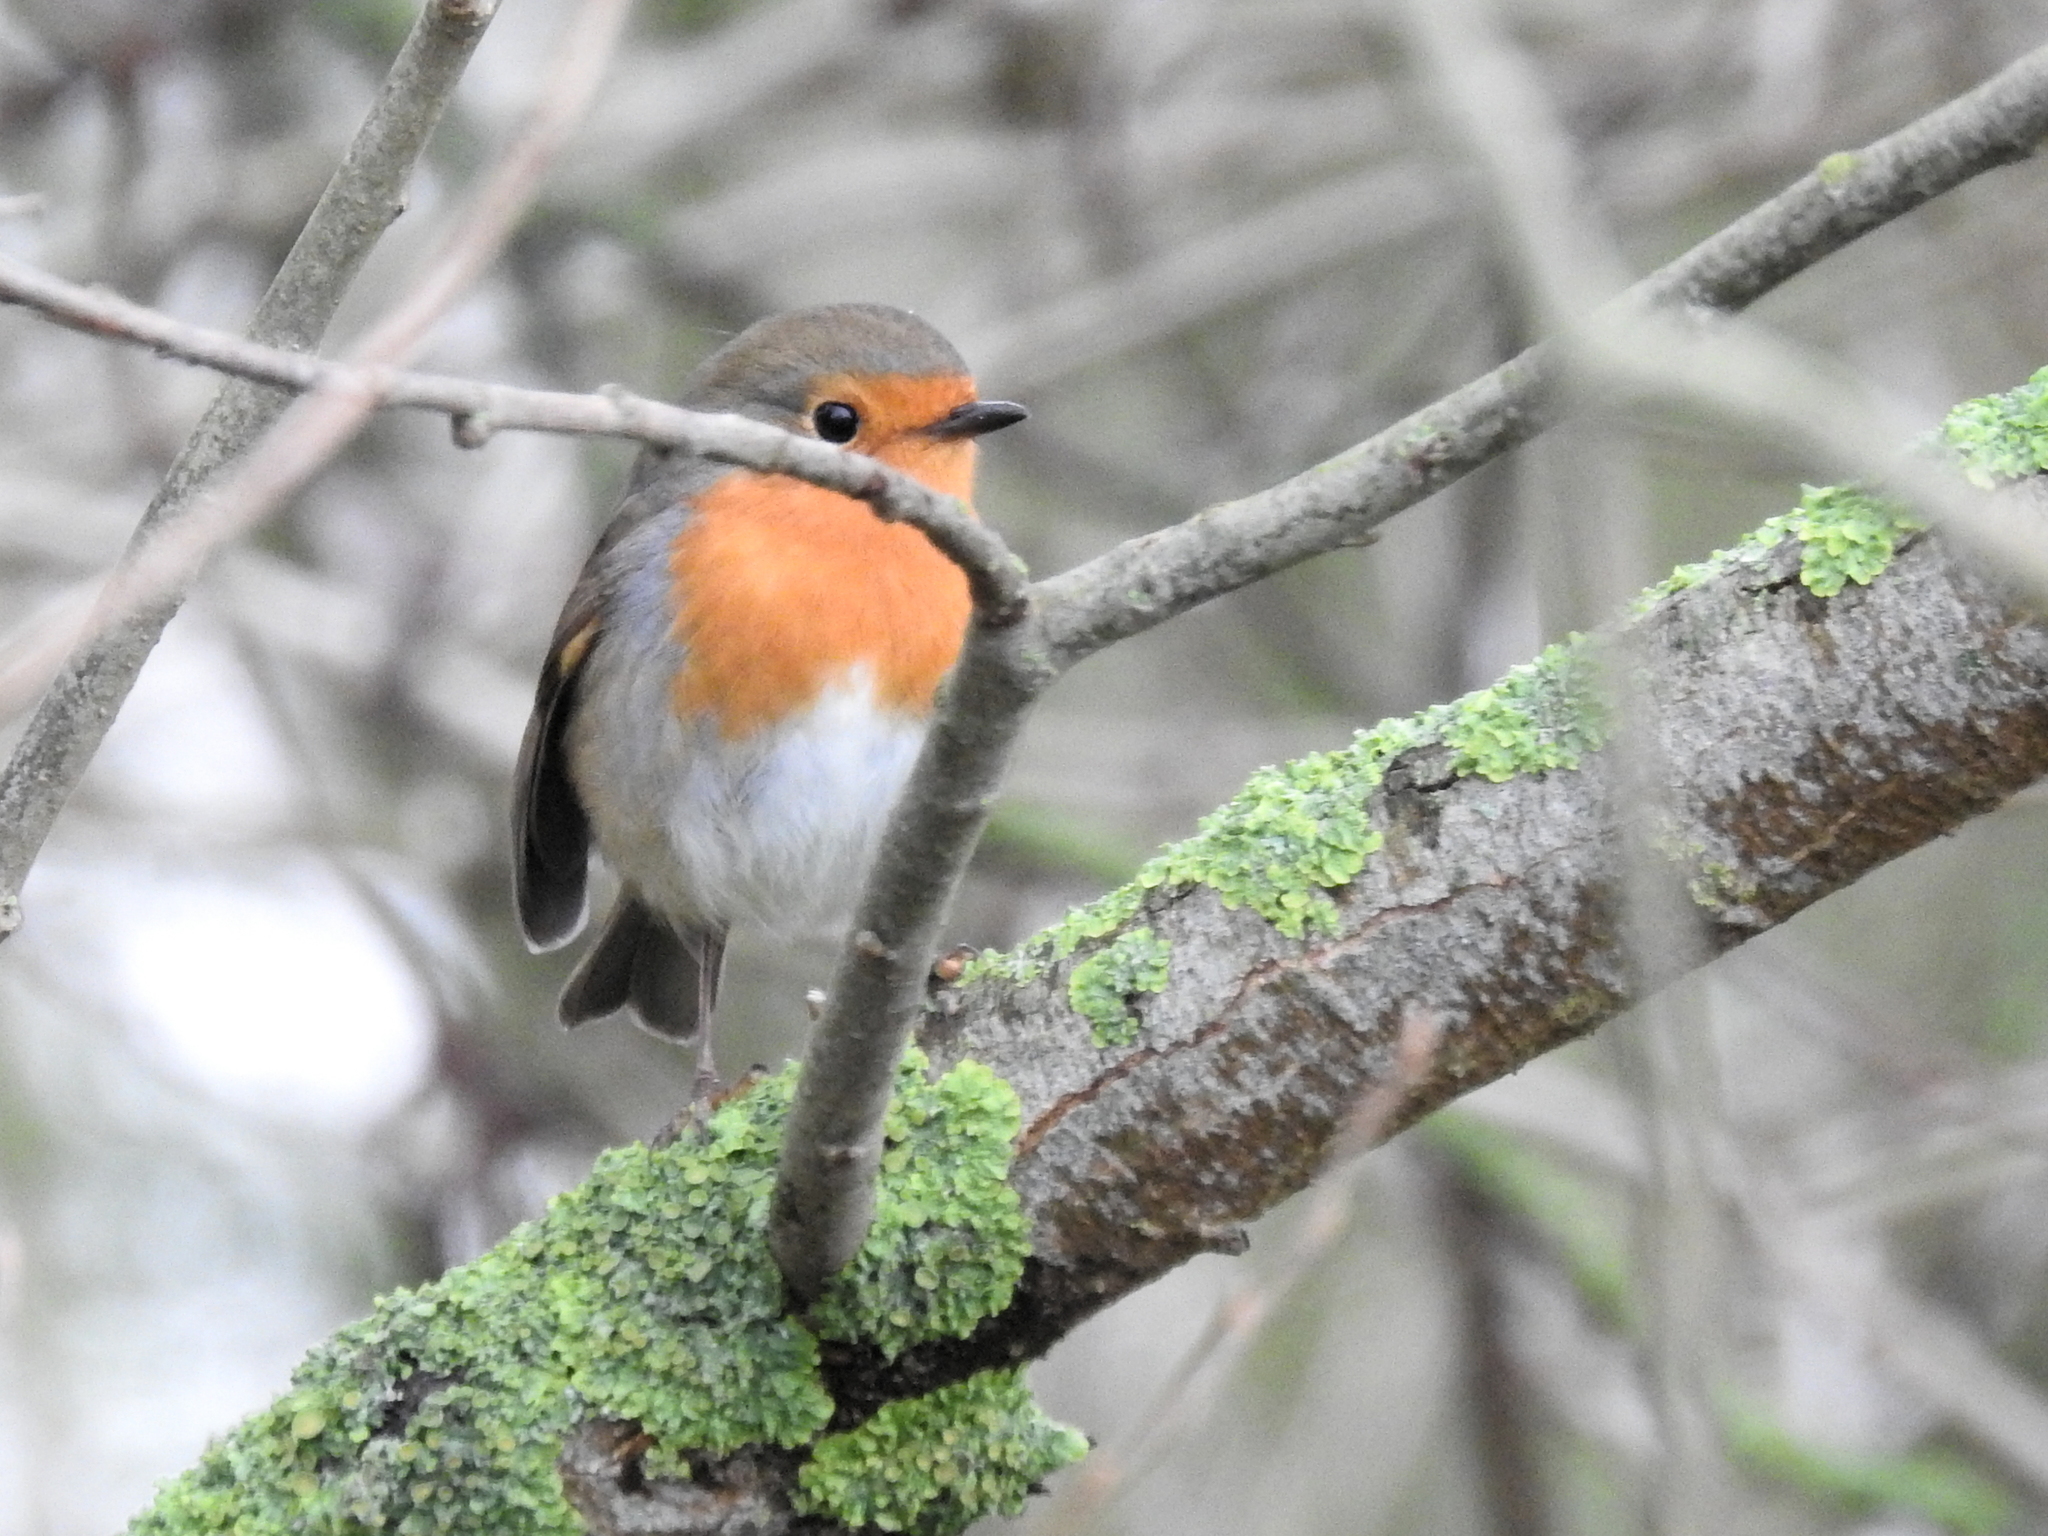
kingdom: Animalia
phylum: Chordata
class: Aves
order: Passeriformes
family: Muscicapidae
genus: Erithacus
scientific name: Erithacus rubecula
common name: European robin
